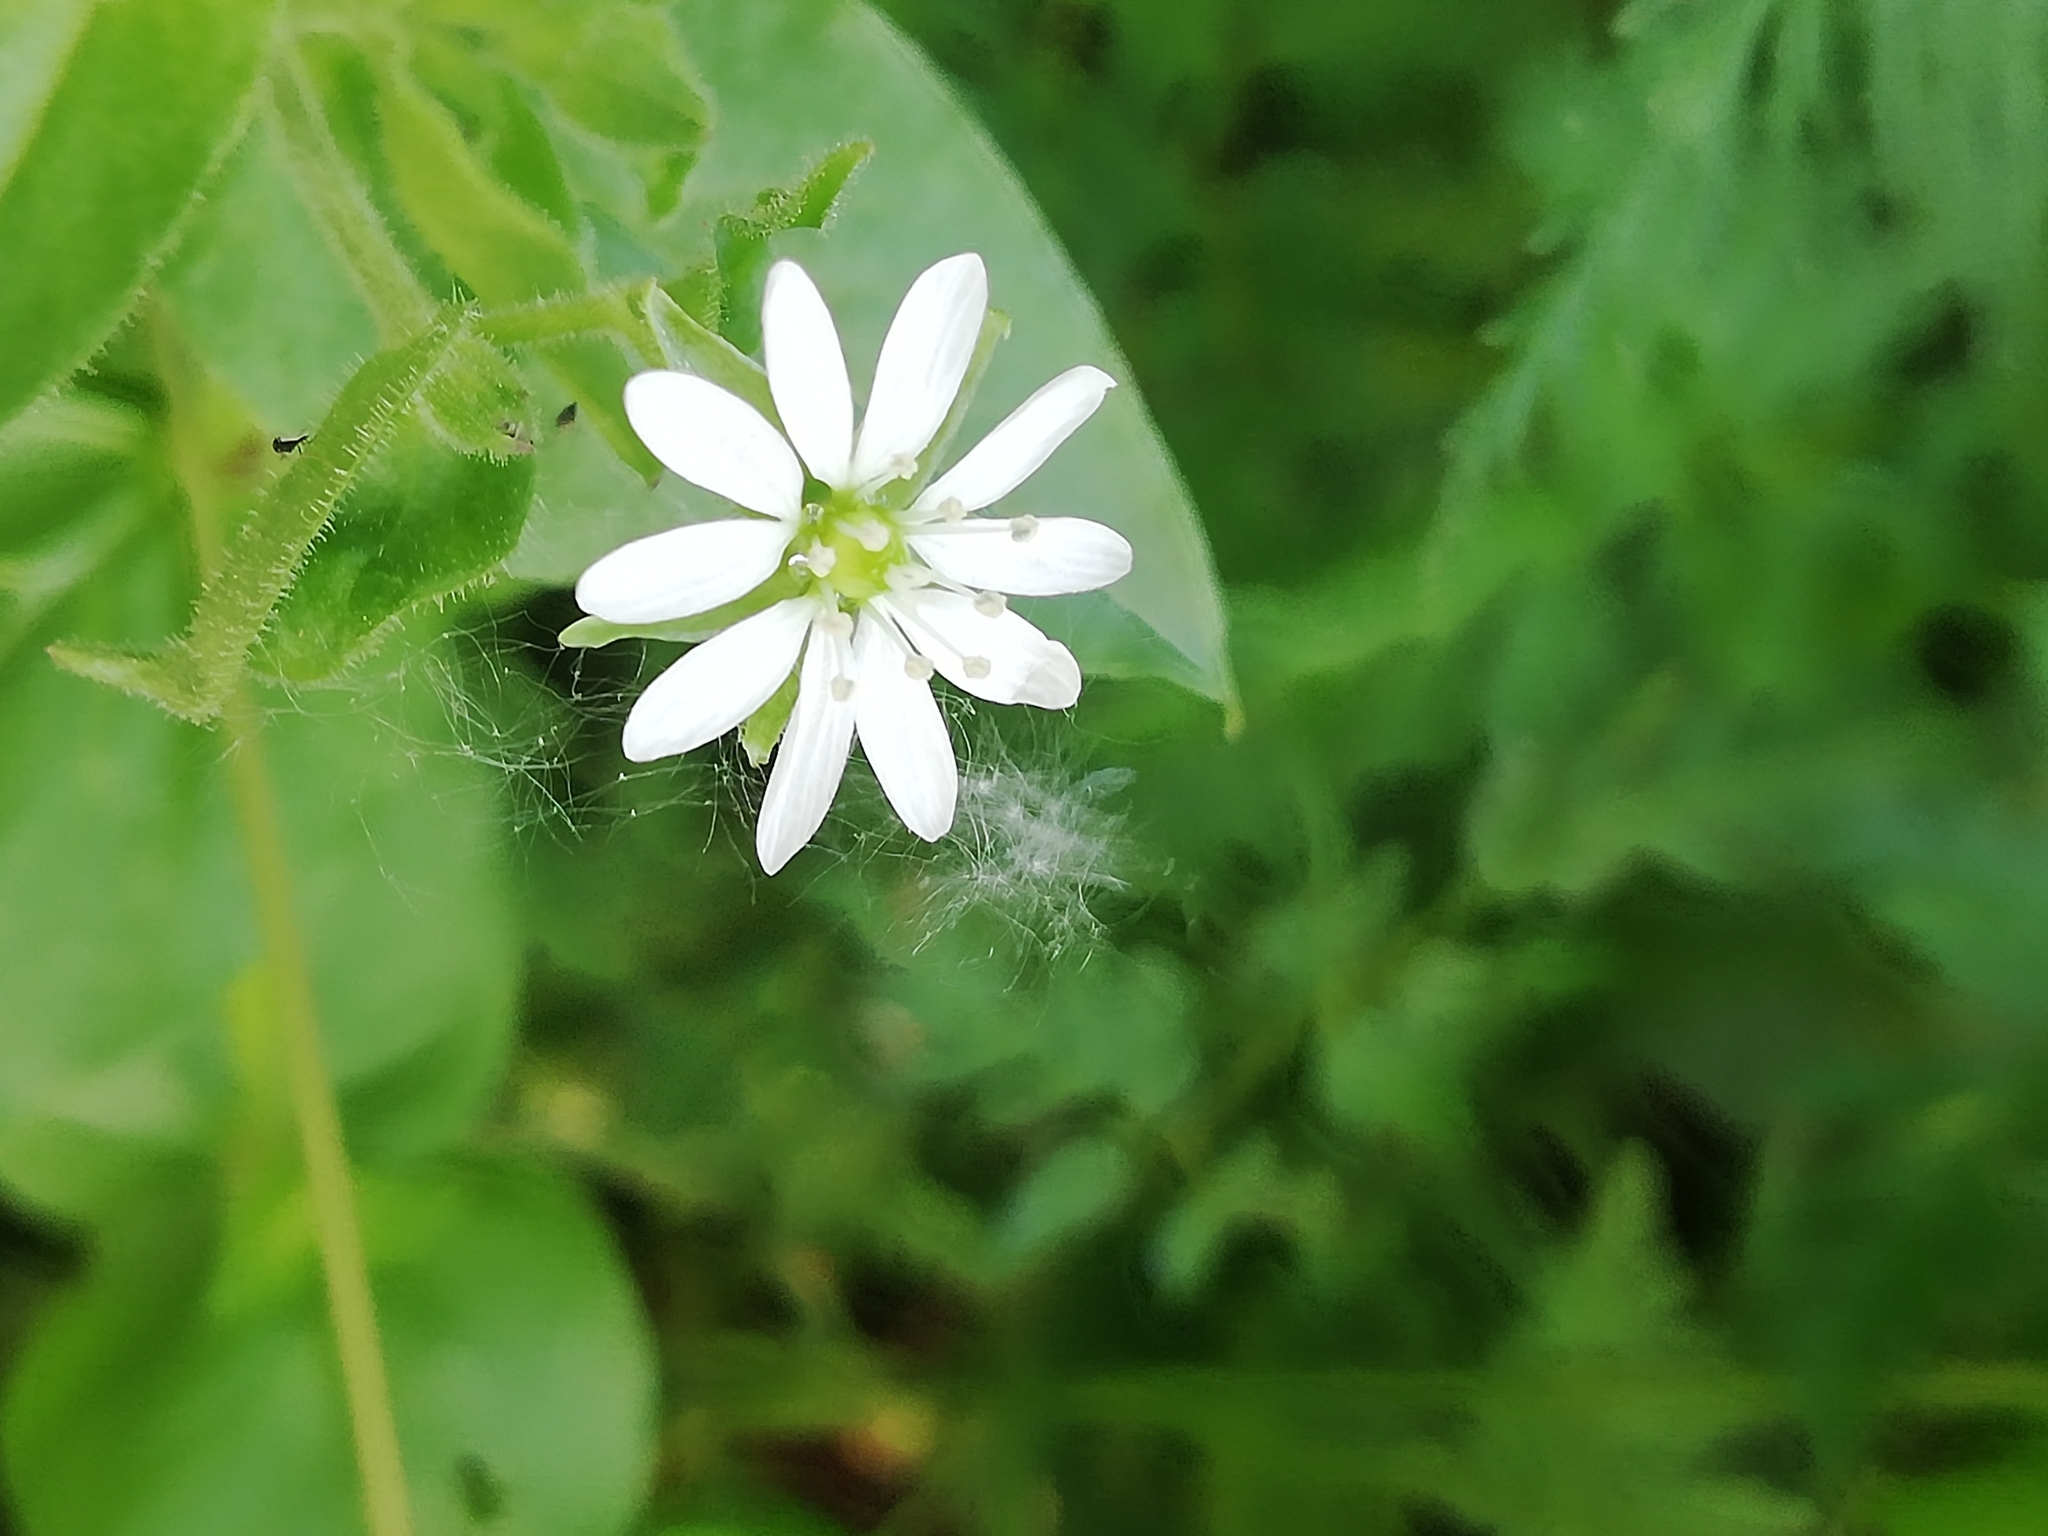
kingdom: Plantae
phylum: Tracheophyta
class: Magnoliopsida
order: Caryophyllales
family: Caryophyllaceae
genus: Stellaria
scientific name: Stellaria aquatica
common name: Water chickweed
